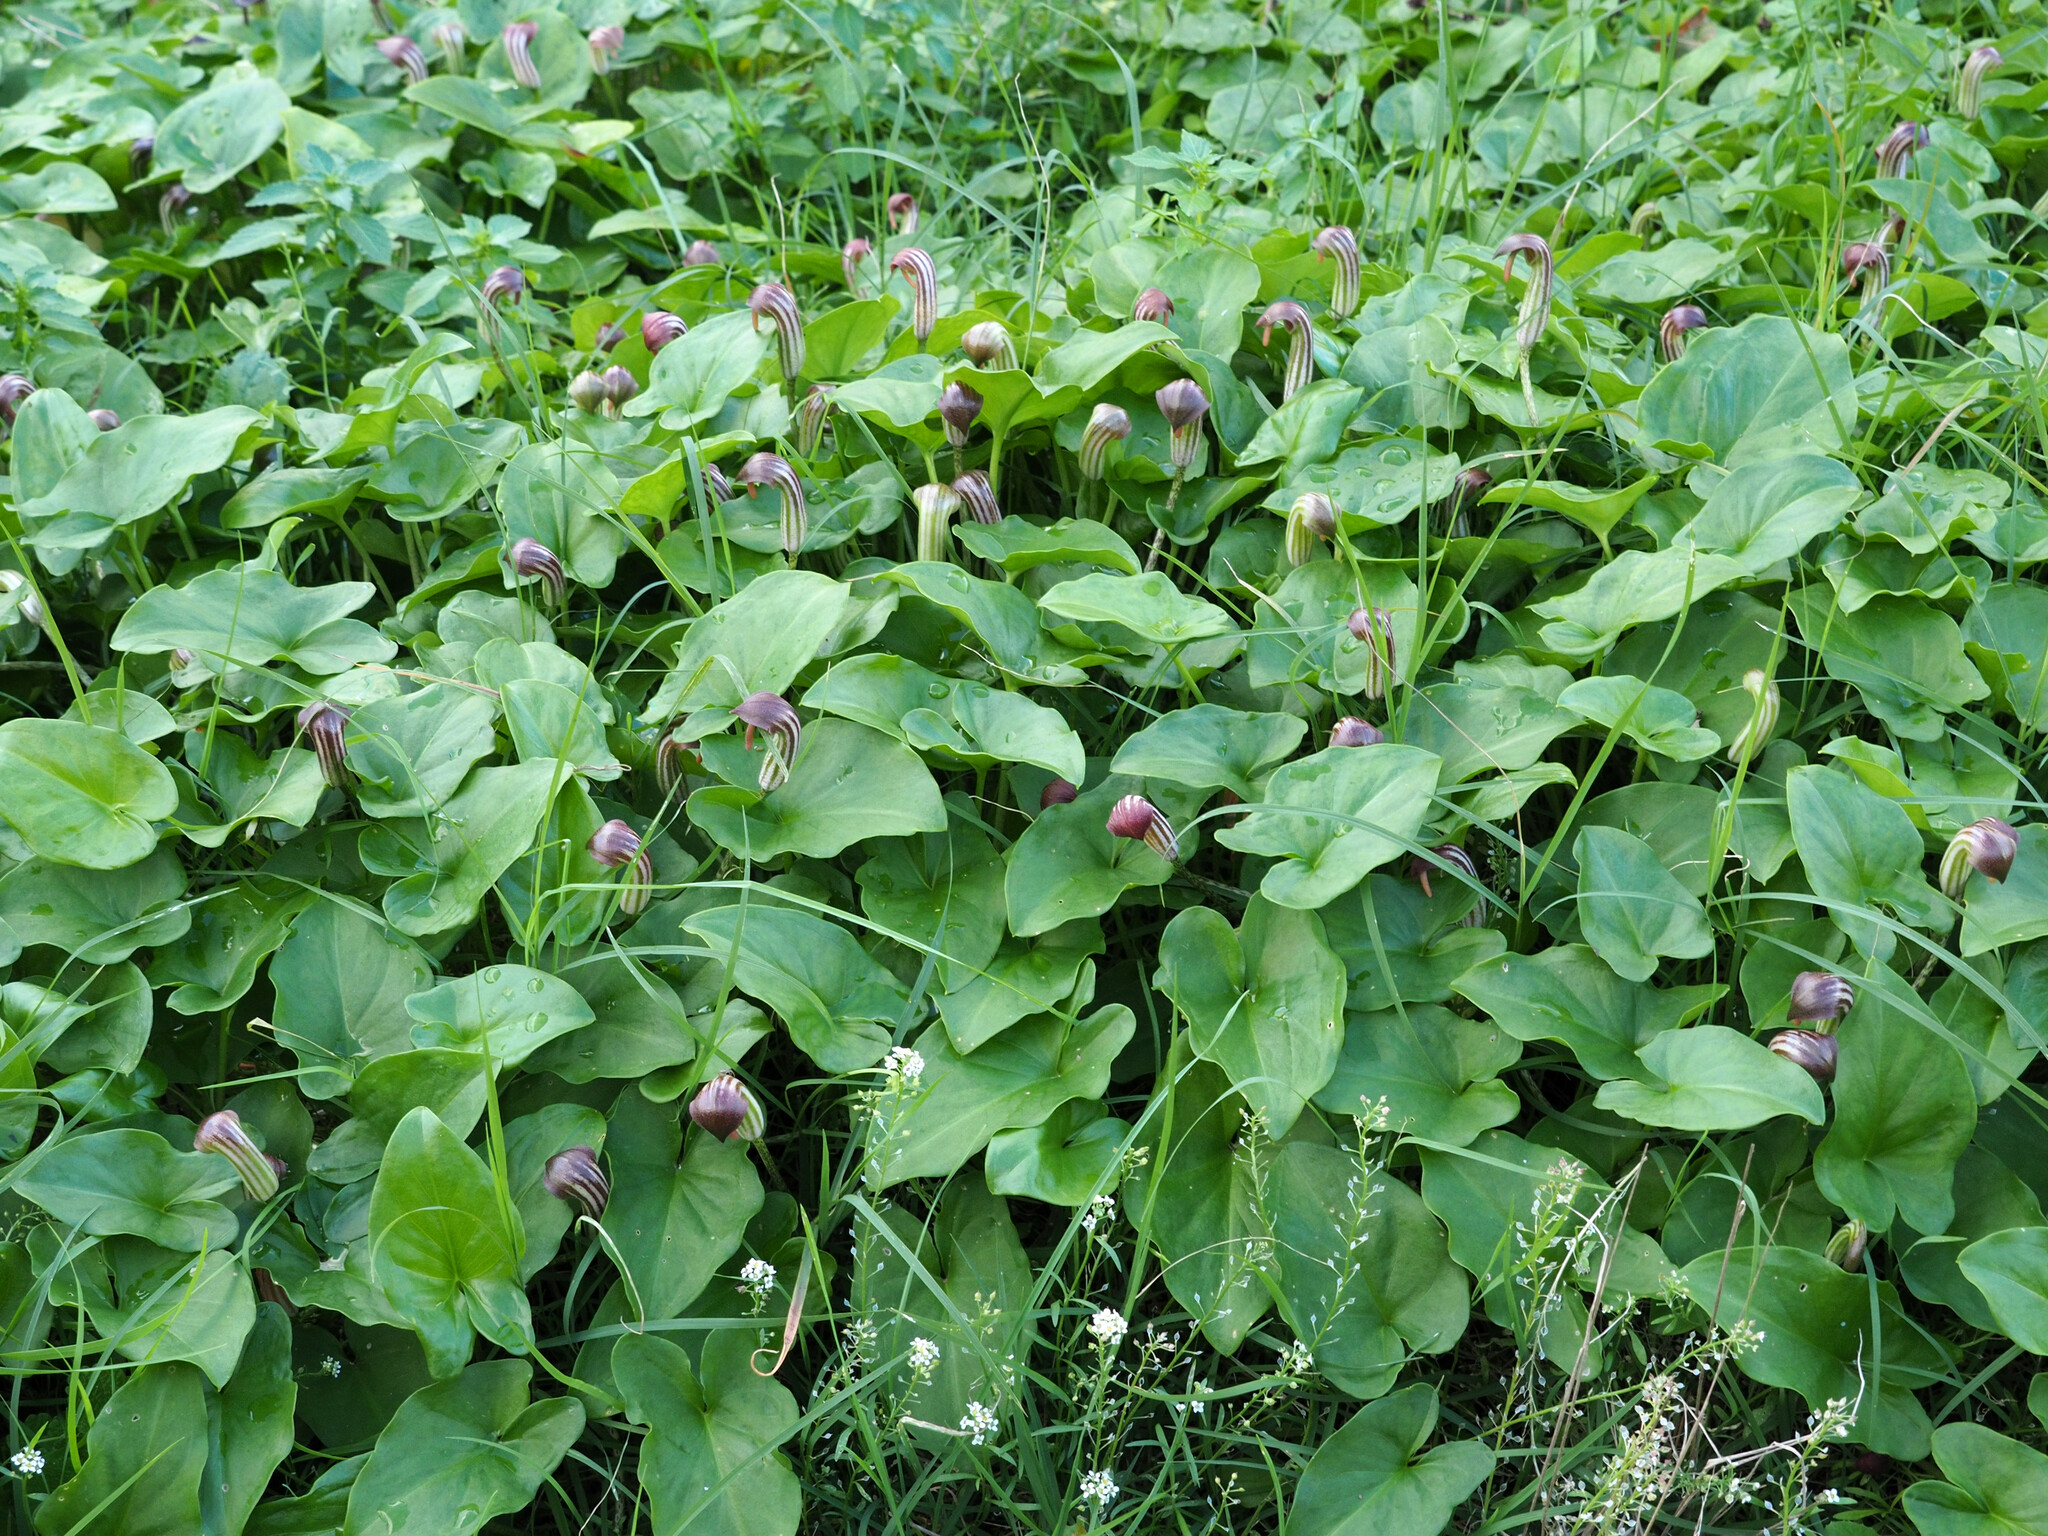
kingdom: Plantae
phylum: Tracheophyta
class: Liliopsida
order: Alismatales
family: Araceae
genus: Arisarum
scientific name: Arisarum vulgare
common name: Common arisarum
